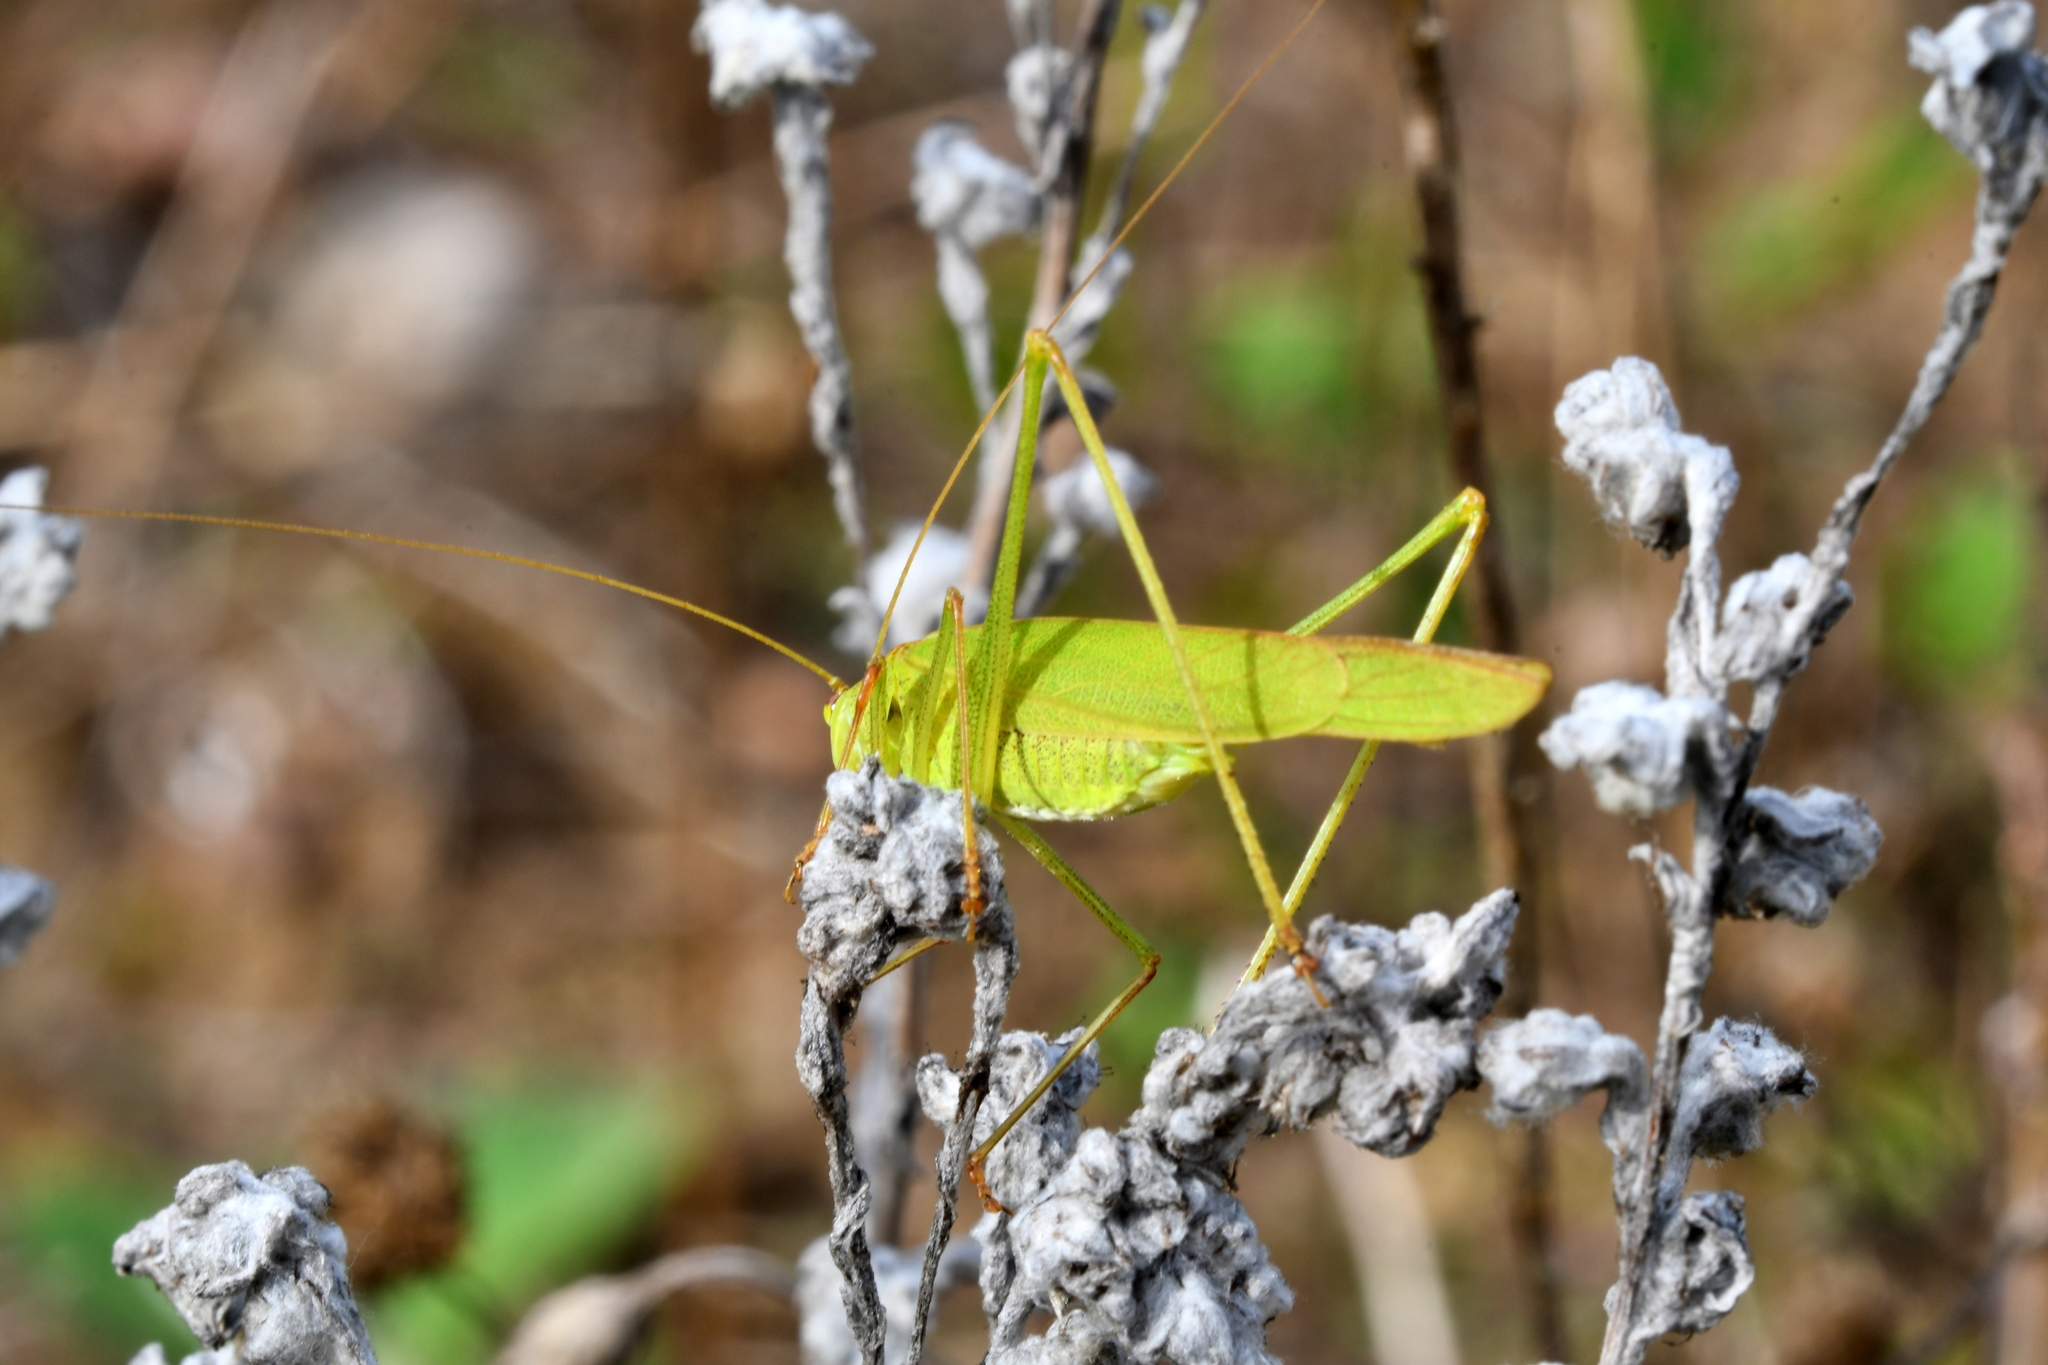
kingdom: Animalia
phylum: Arthropoda
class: Insecta
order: Orthoptera
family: Tettigoniidae
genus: Phaneroptera
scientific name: Phaneroptera falcata
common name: Sickle-bearing bush-cricket
